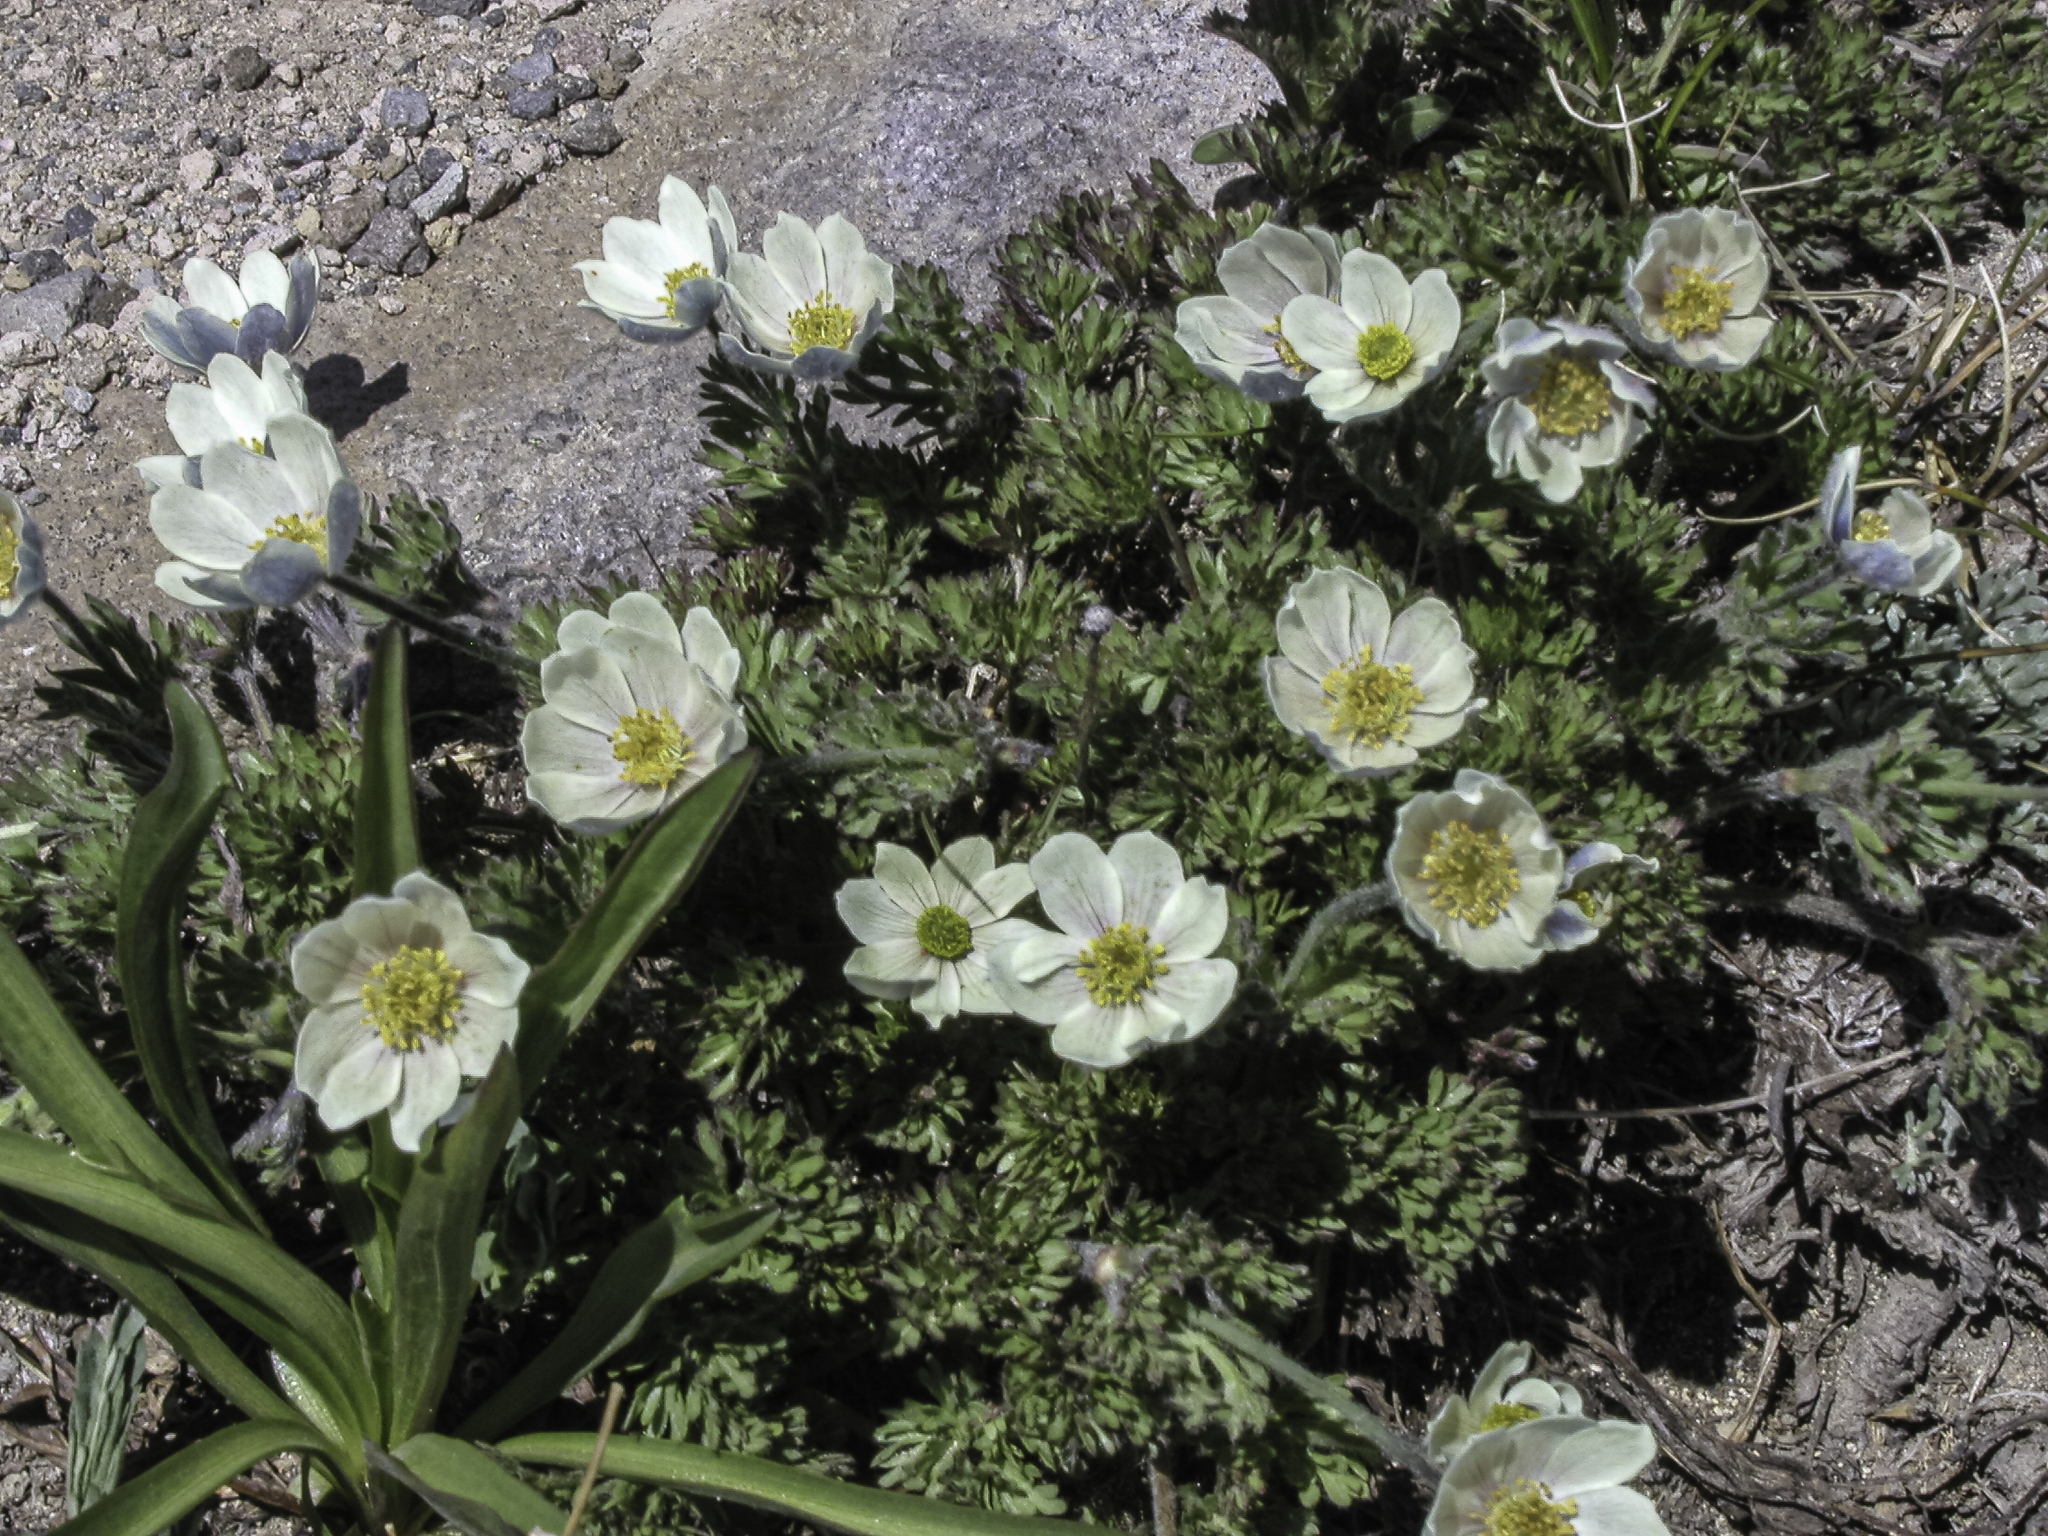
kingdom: Plantae
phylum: Tracheophyta
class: Magnoliopsida
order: Ranunculales
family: Ranunculaceae
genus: Anemone
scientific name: Anemone drummondii
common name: Drummond's anemone
